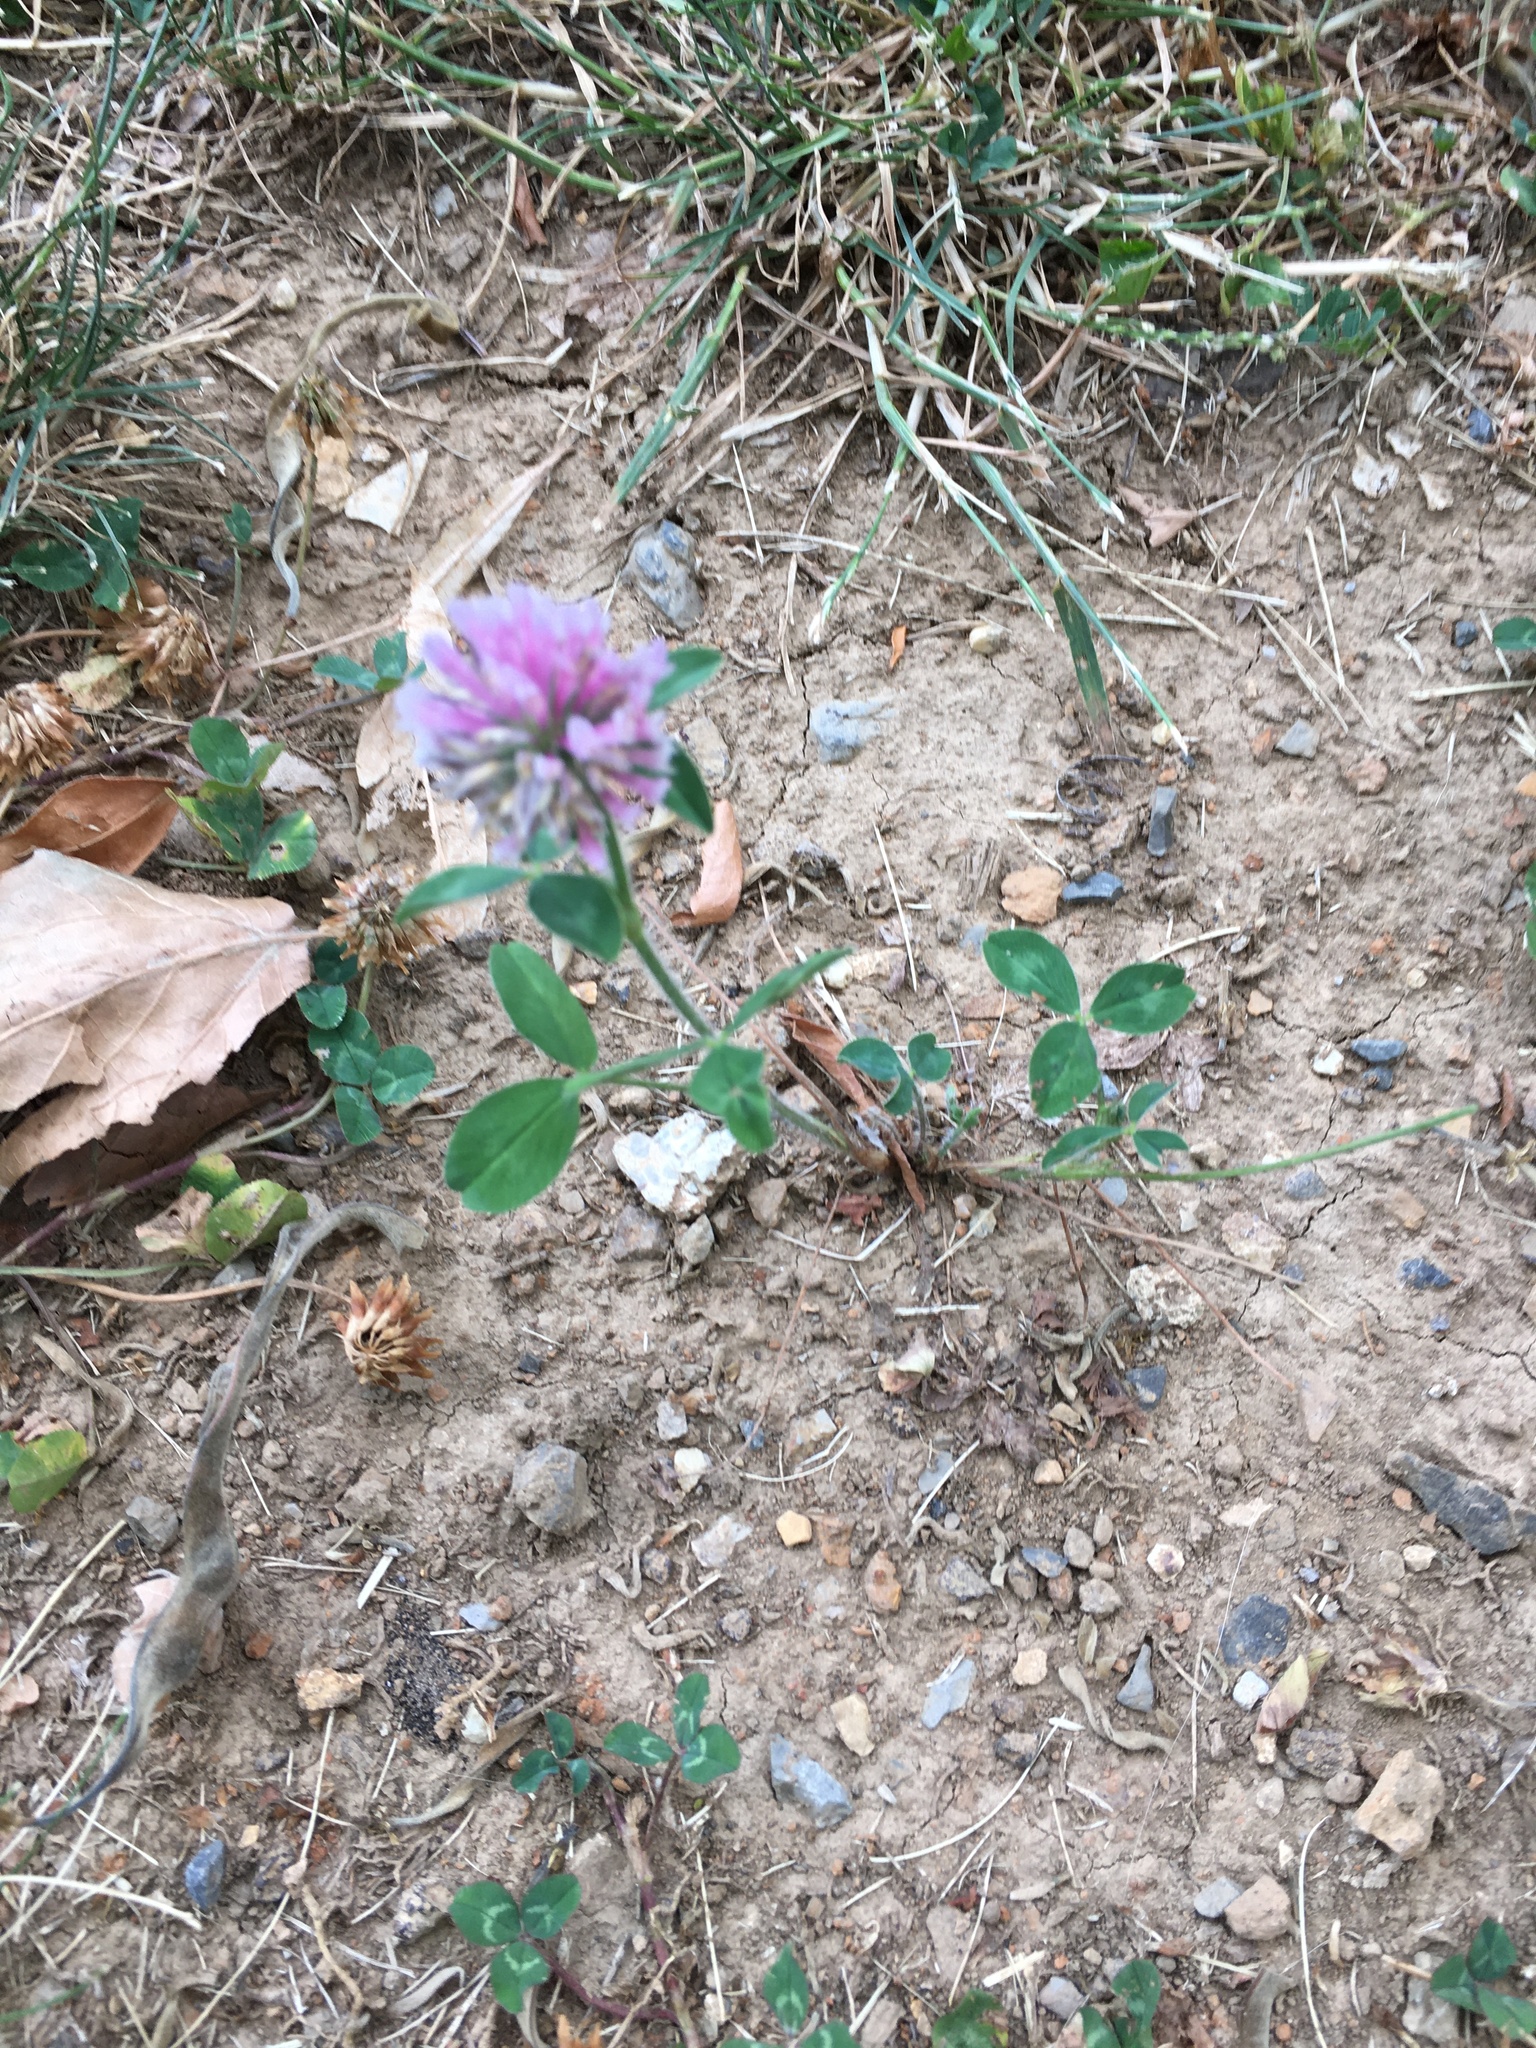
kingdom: Plantae
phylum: Tracheophyta
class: Magnoliopsida
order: Fabales
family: Fabaceae
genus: Trifolium
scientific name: Trifolium pratense
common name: Red clover
